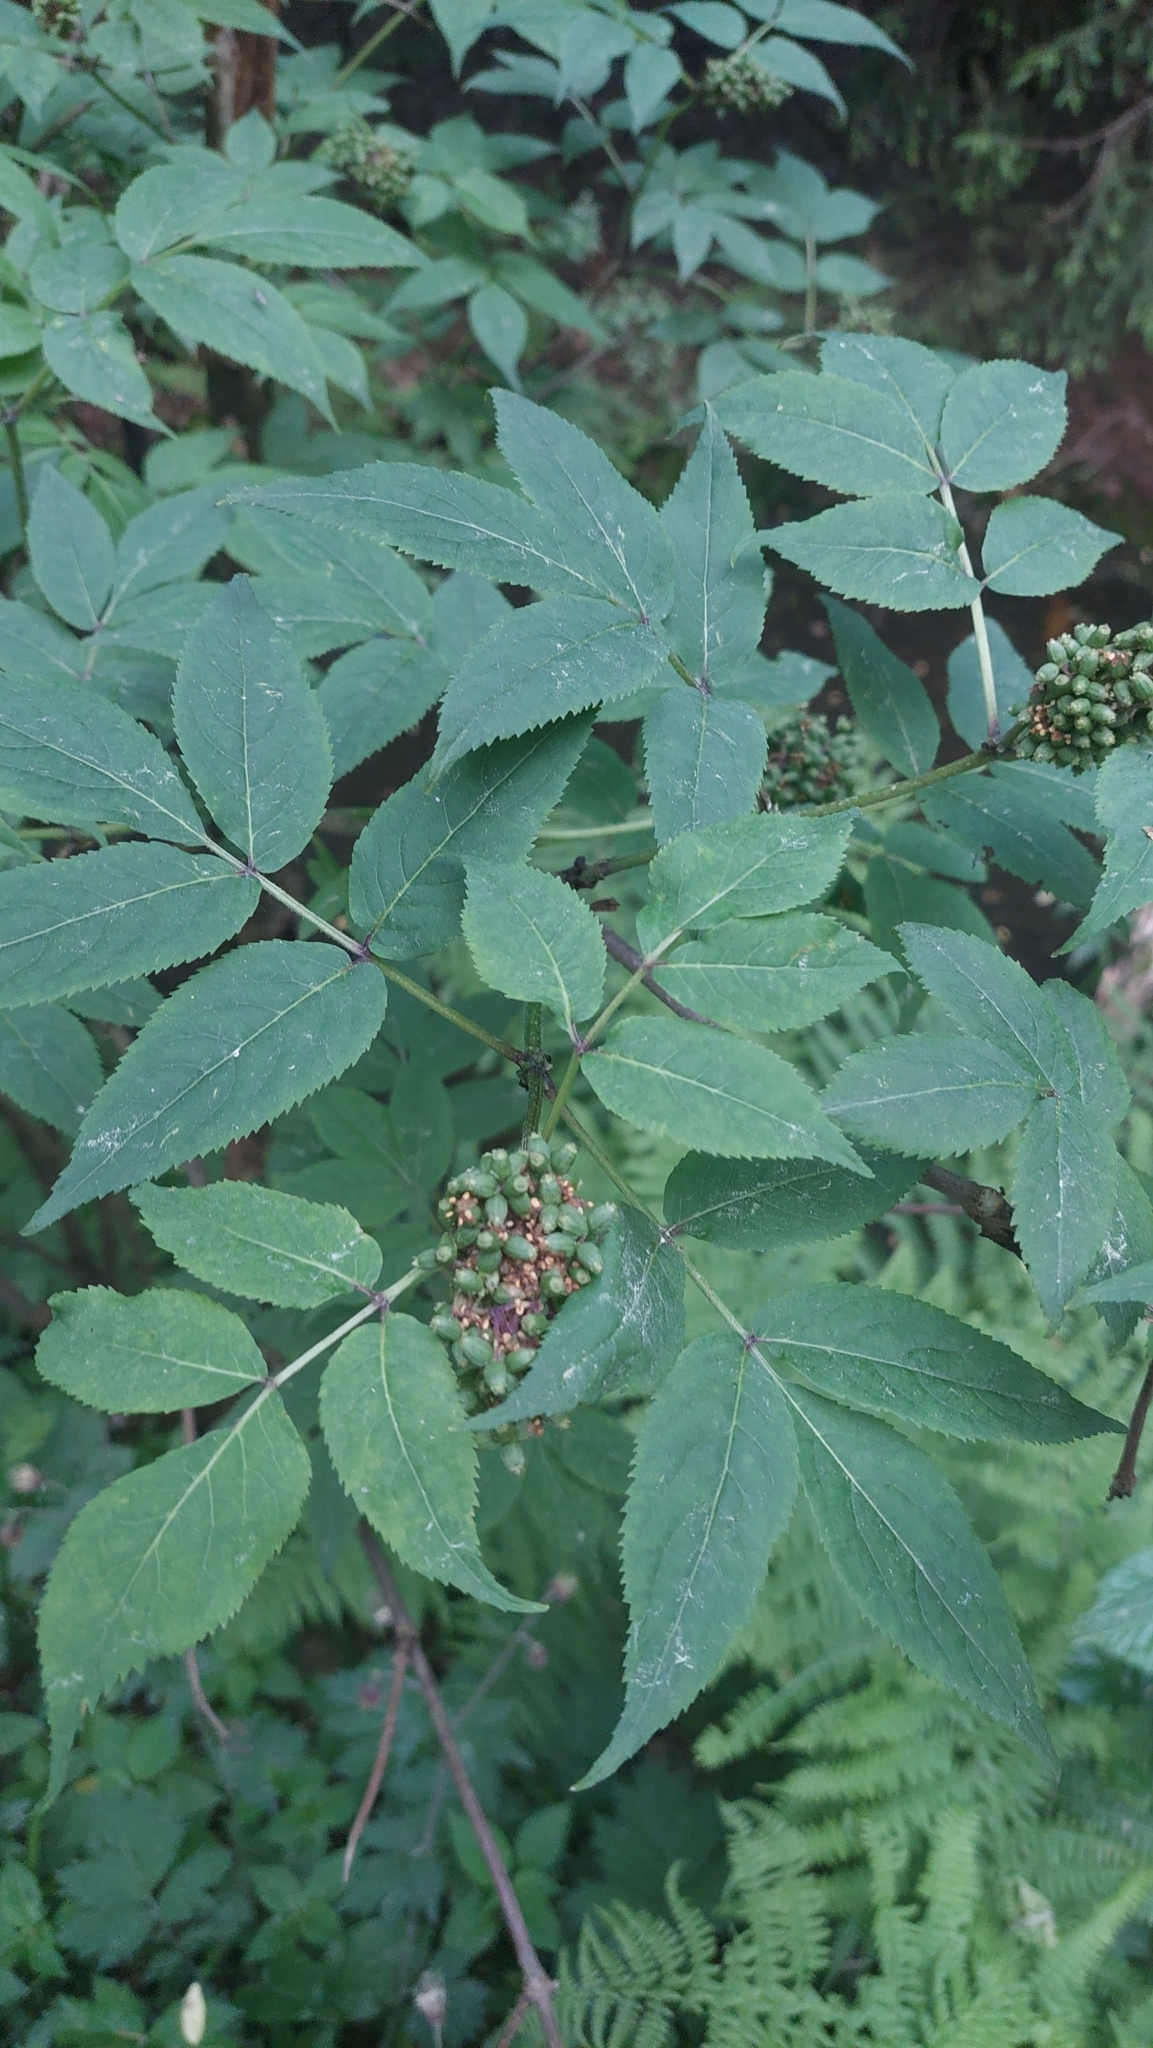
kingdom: Plantae
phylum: Tracheophyta
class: Magnoliopsida
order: Dipsacales
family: Viburnaceae
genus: Sambucus
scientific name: Sambucus racemosa
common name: Red-berried elder
